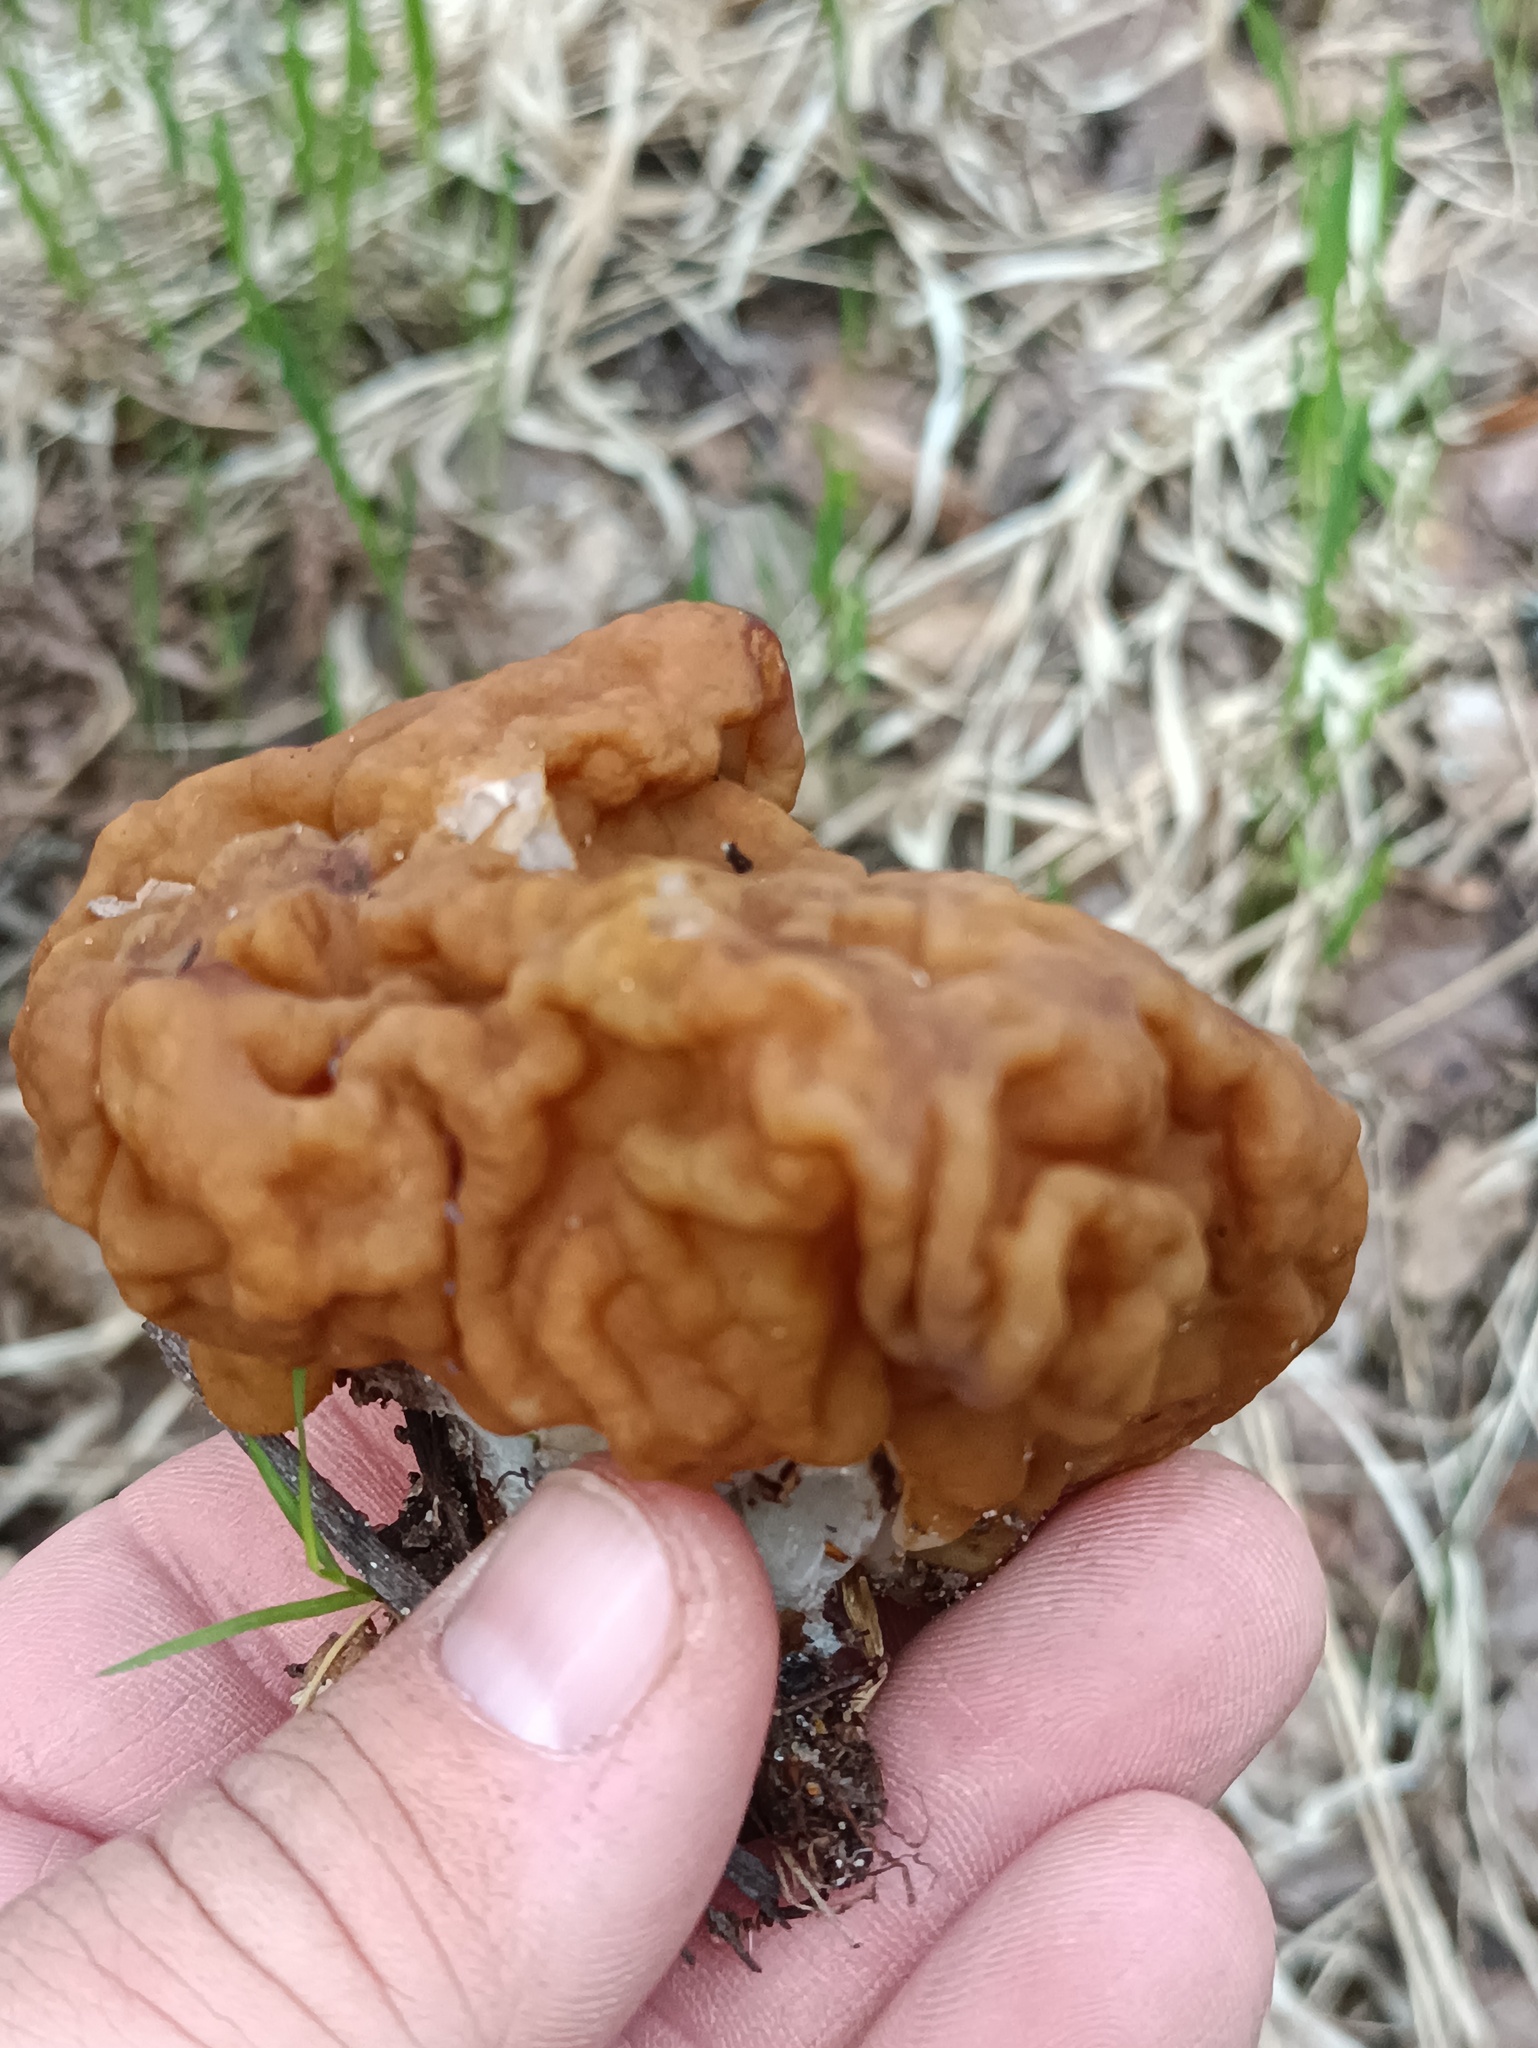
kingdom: Fungi
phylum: Ascomycota
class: Pezizomycetes
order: Pezizales
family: Discinaceae
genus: Gyromitra
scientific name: Gyromitra gigas
